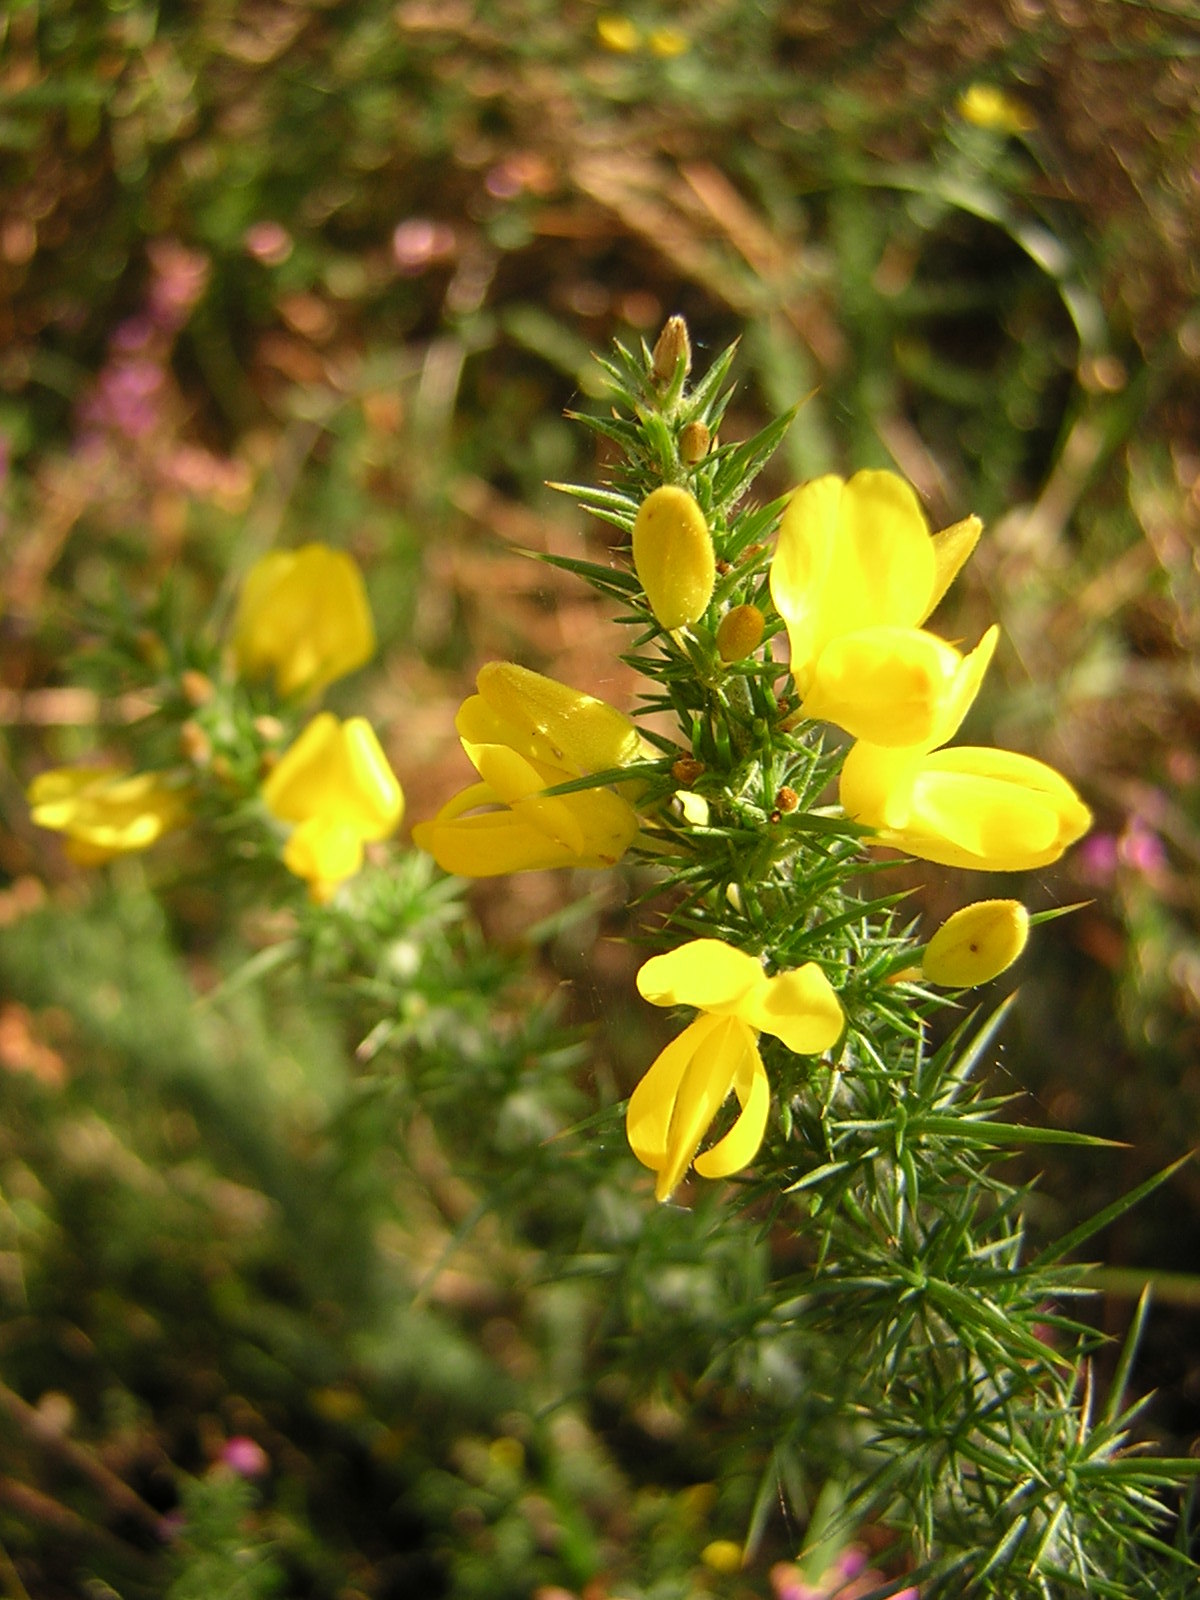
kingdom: Plantae
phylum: Tracheophyta
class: Magnoliopsida
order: Fabales
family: Fabaceae
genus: Ulex
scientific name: Ulex minor
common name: Dwarf gorse
